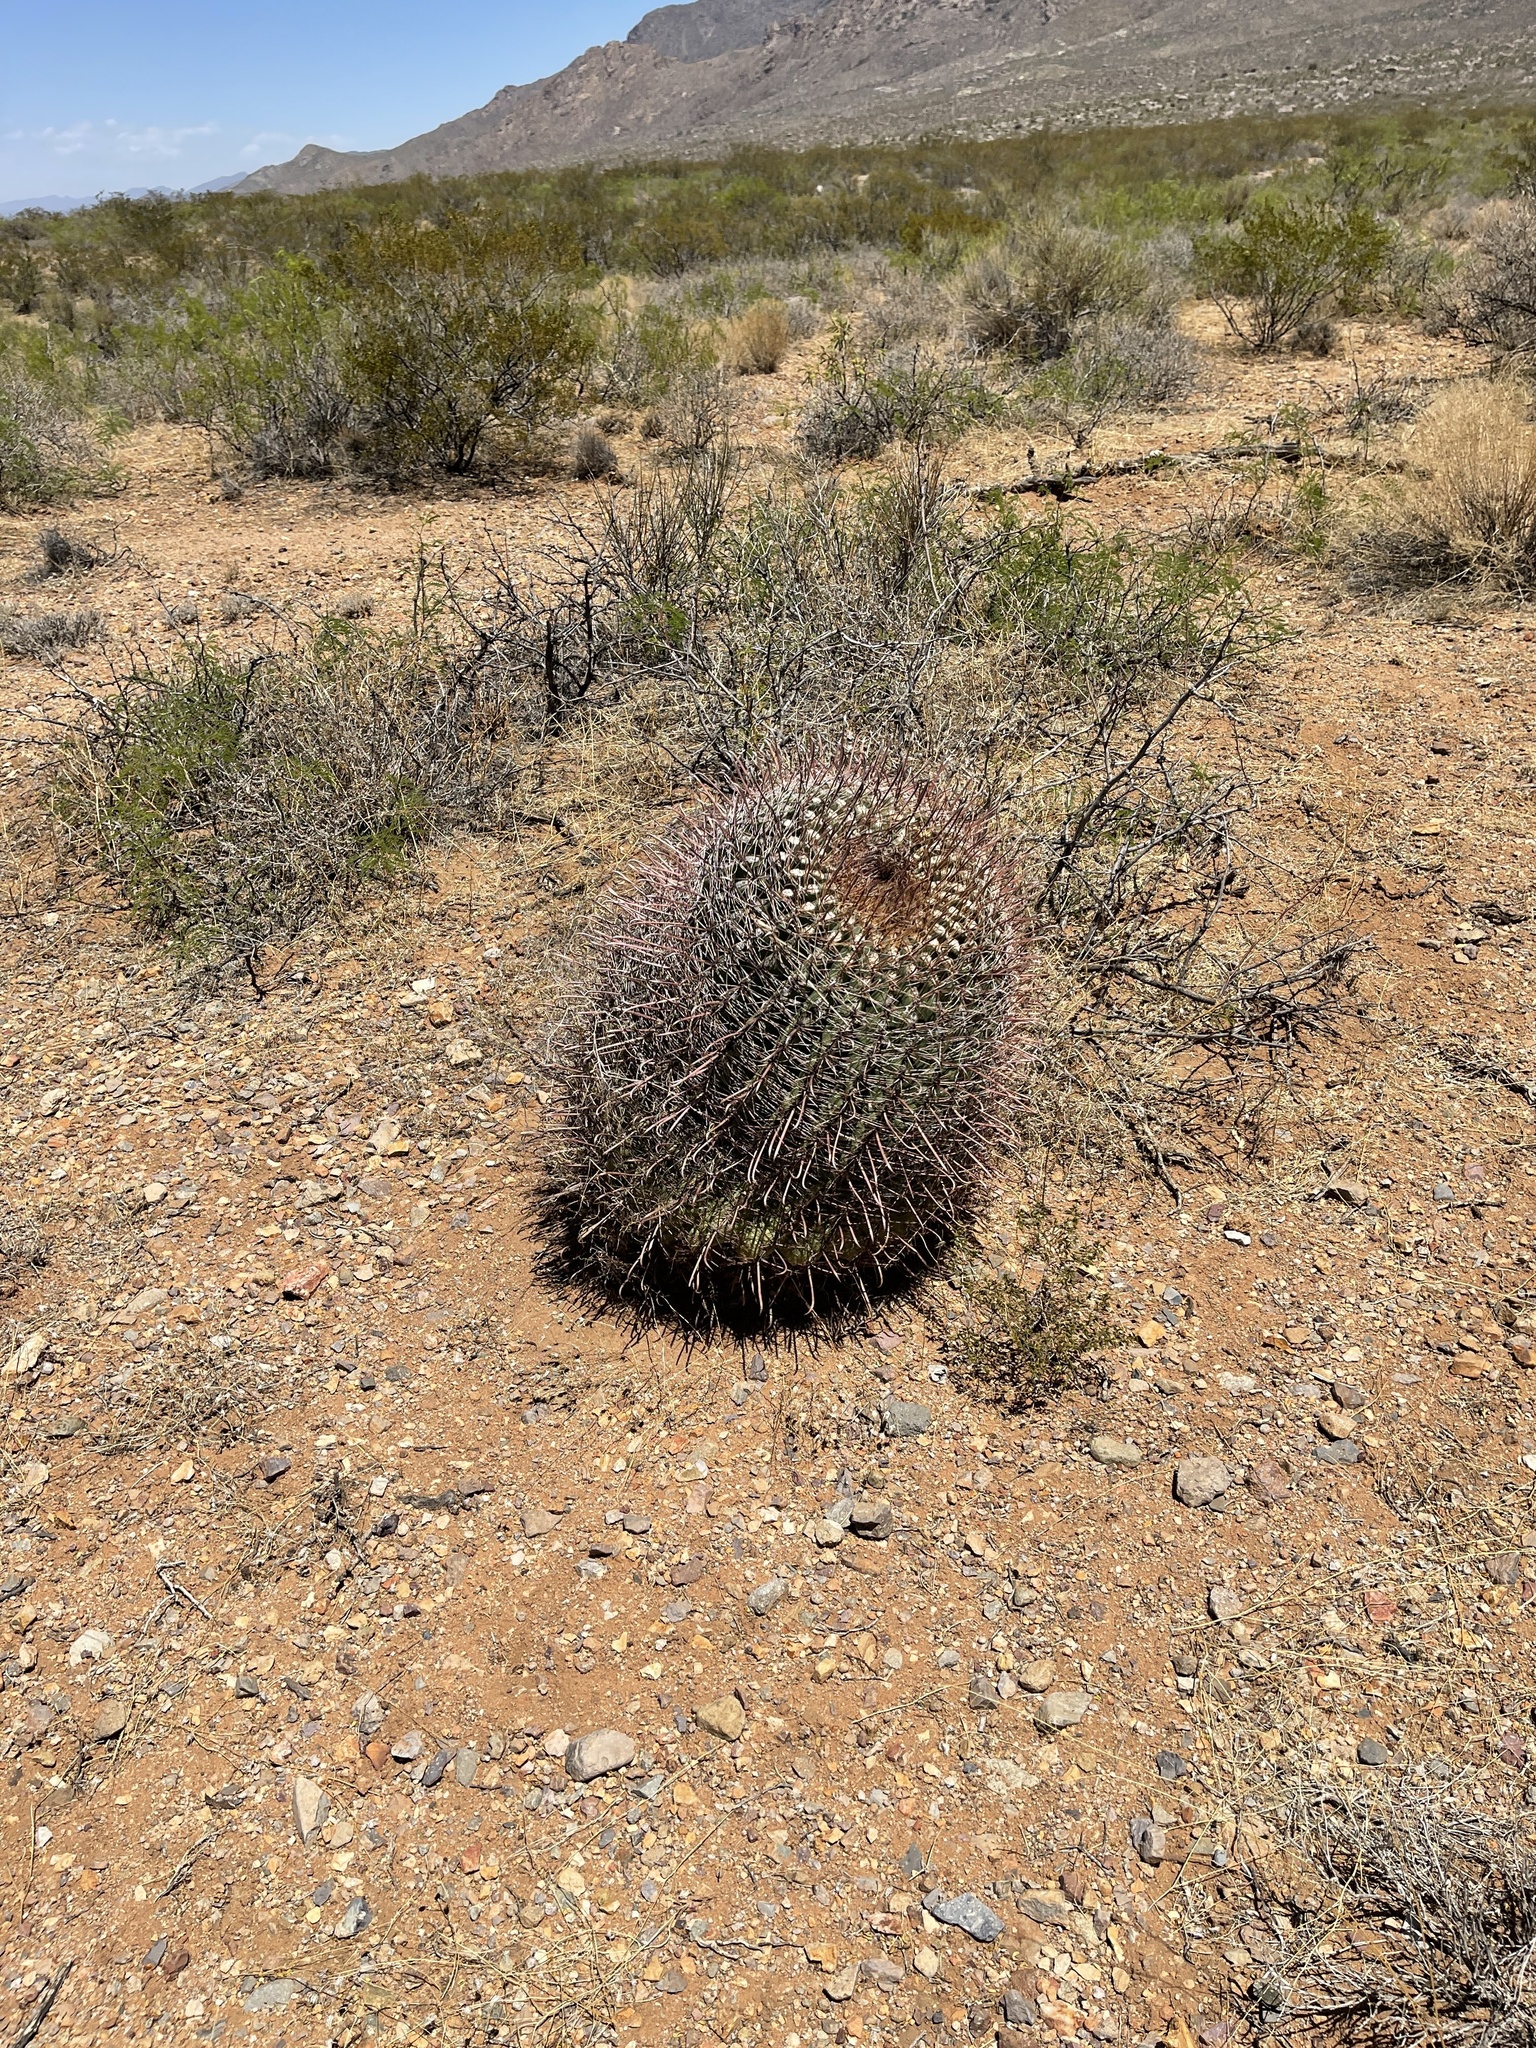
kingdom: Plantae
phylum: Tracheophyta
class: Magnoliopsida
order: Caryophyllales
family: Cactaceae
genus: Ferocactus
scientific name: Ferocactus wislizeni
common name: Candy barrel cactus
